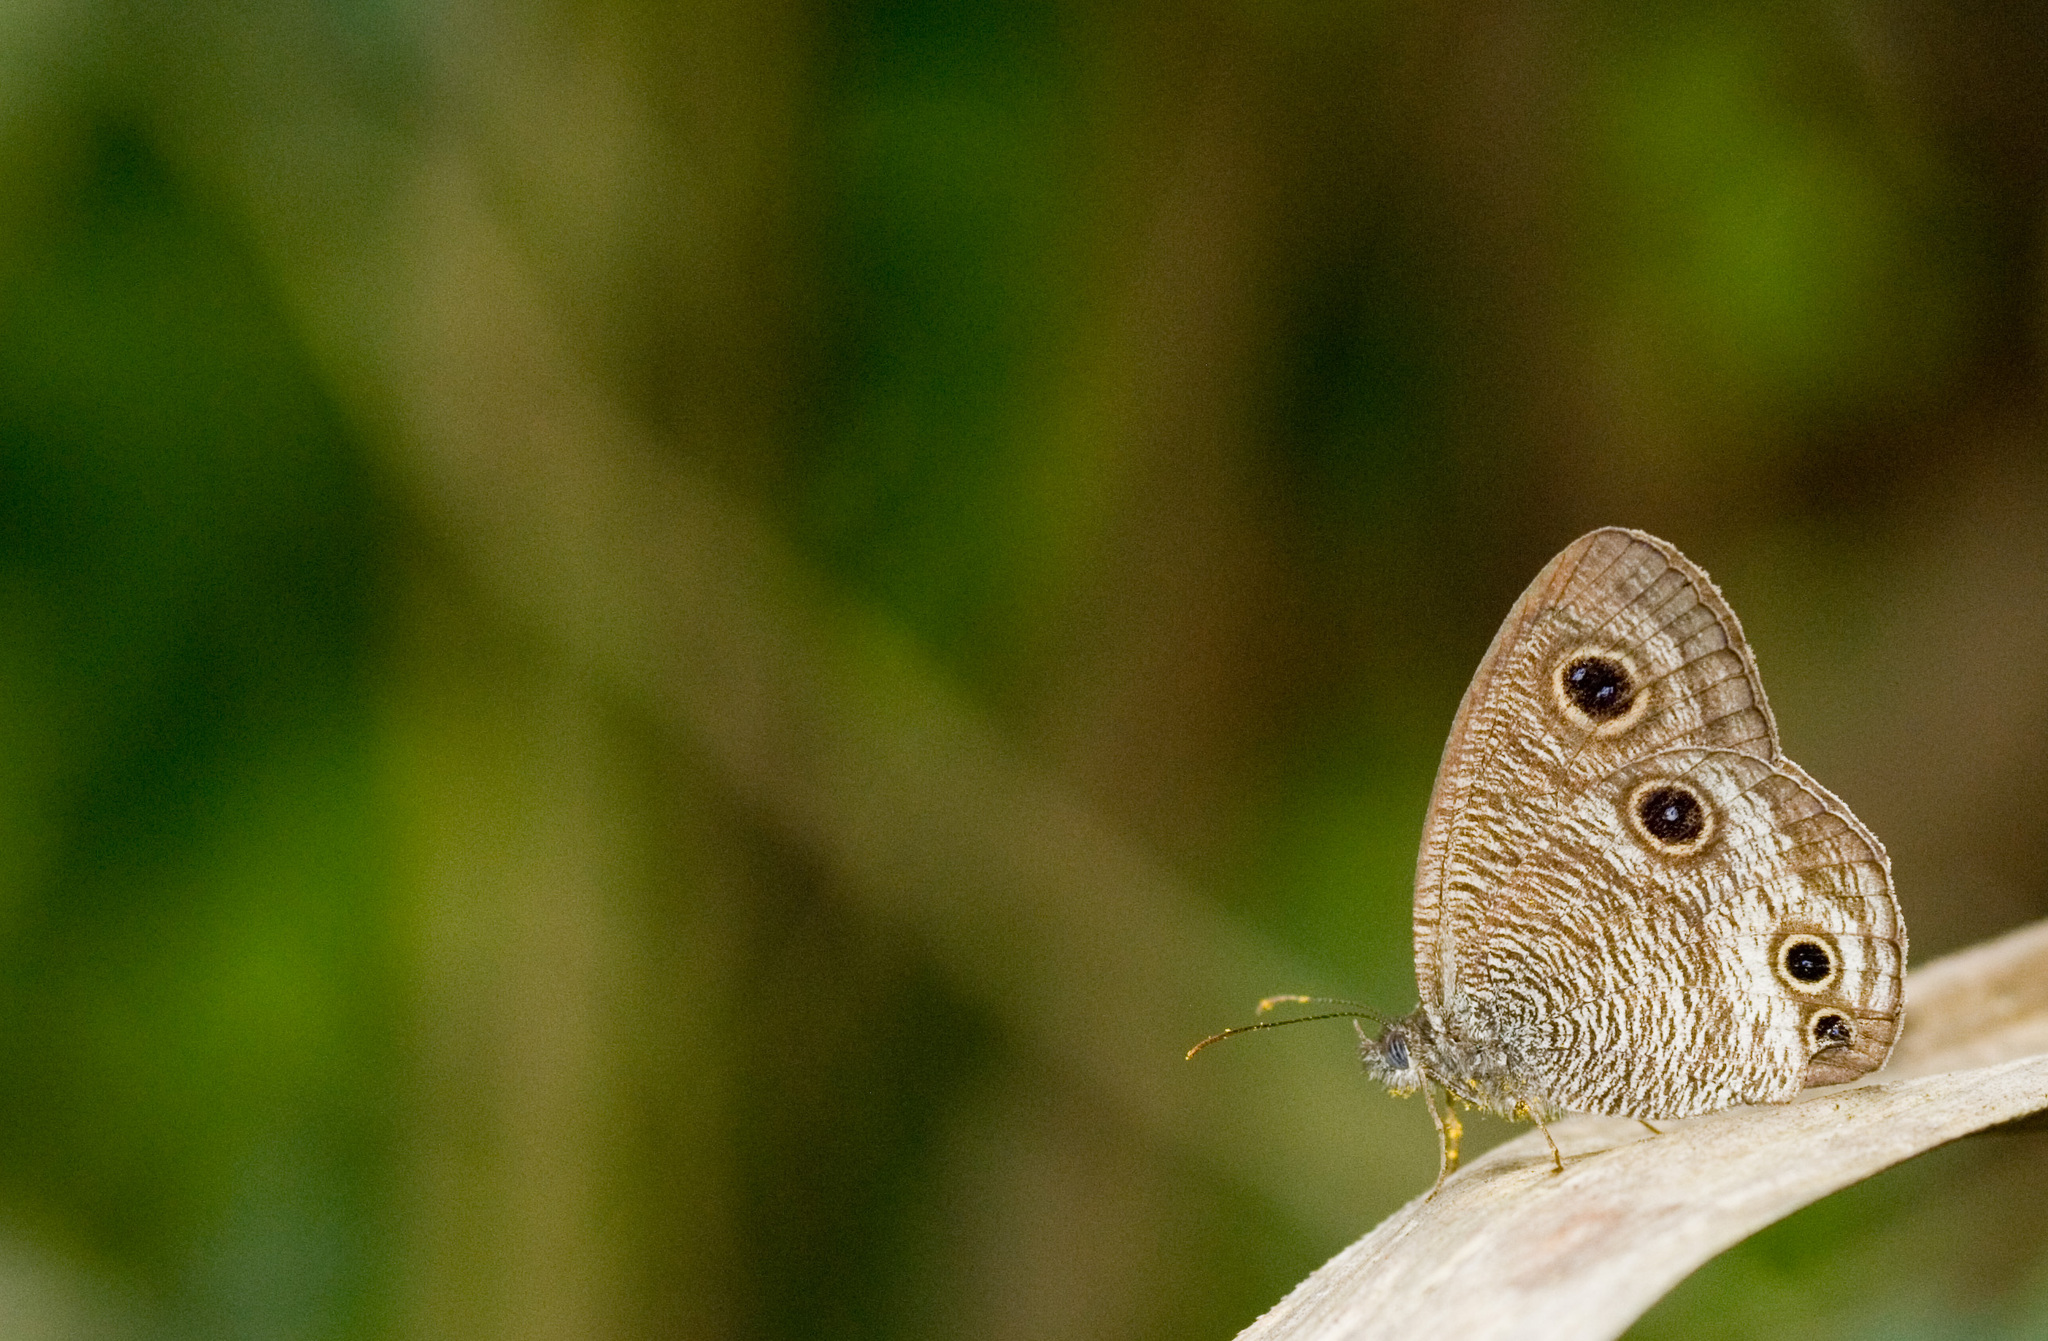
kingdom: Animalia
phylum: Arthropoda
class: Insecta
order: Lepidoptera
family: Nymphalidae
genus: Ypthima
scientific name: Ypthima multistriata
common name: Striated ringlet
